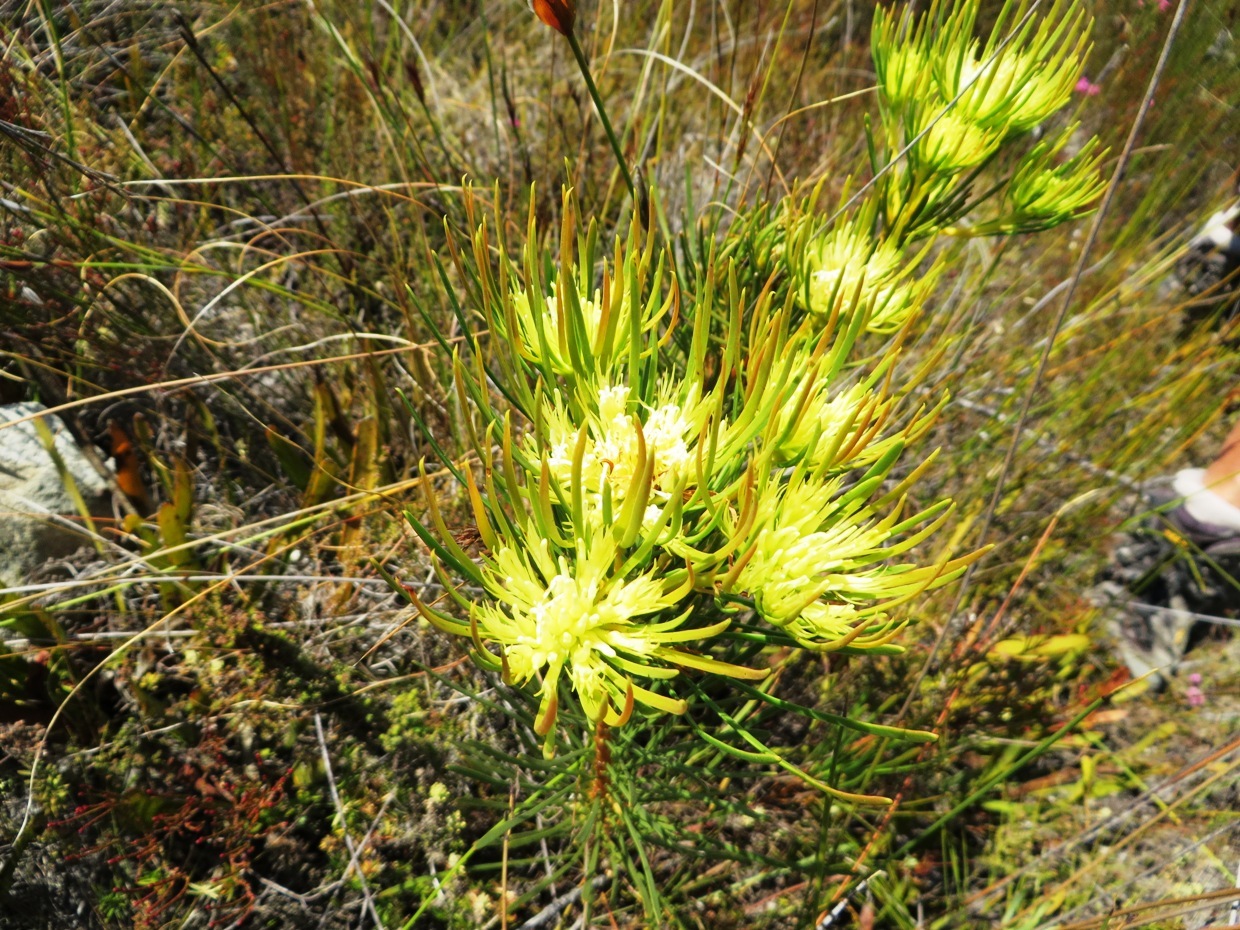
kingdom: Plantae
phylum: Tracheophyta
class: Magnoliopsida
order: Proteales
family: Proteaceae
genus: Aulax
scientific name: Aulax pallasia
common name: Needle-leaf featherbush
